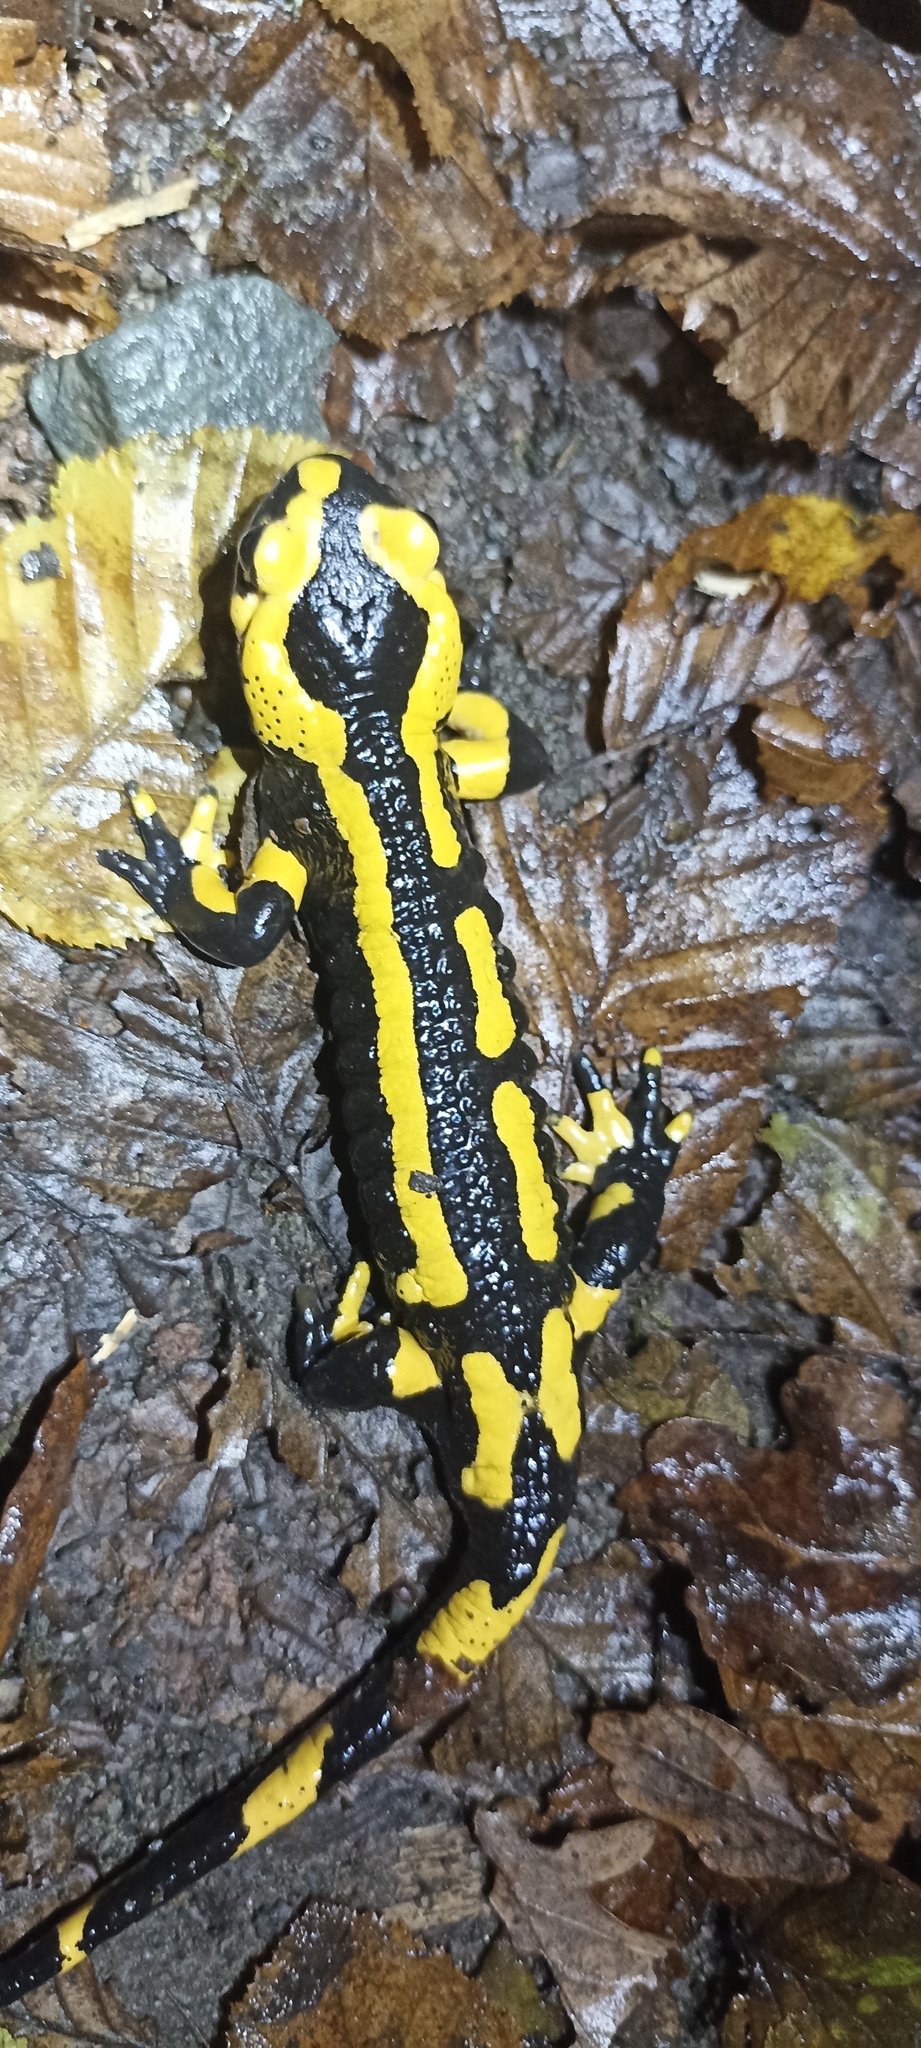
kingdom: Animalia
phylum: Chordata
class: Amphibia
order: Caudata
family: Salamandridae
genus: Salamandra
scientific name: Salamandra salamandra
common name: Fire salamander
